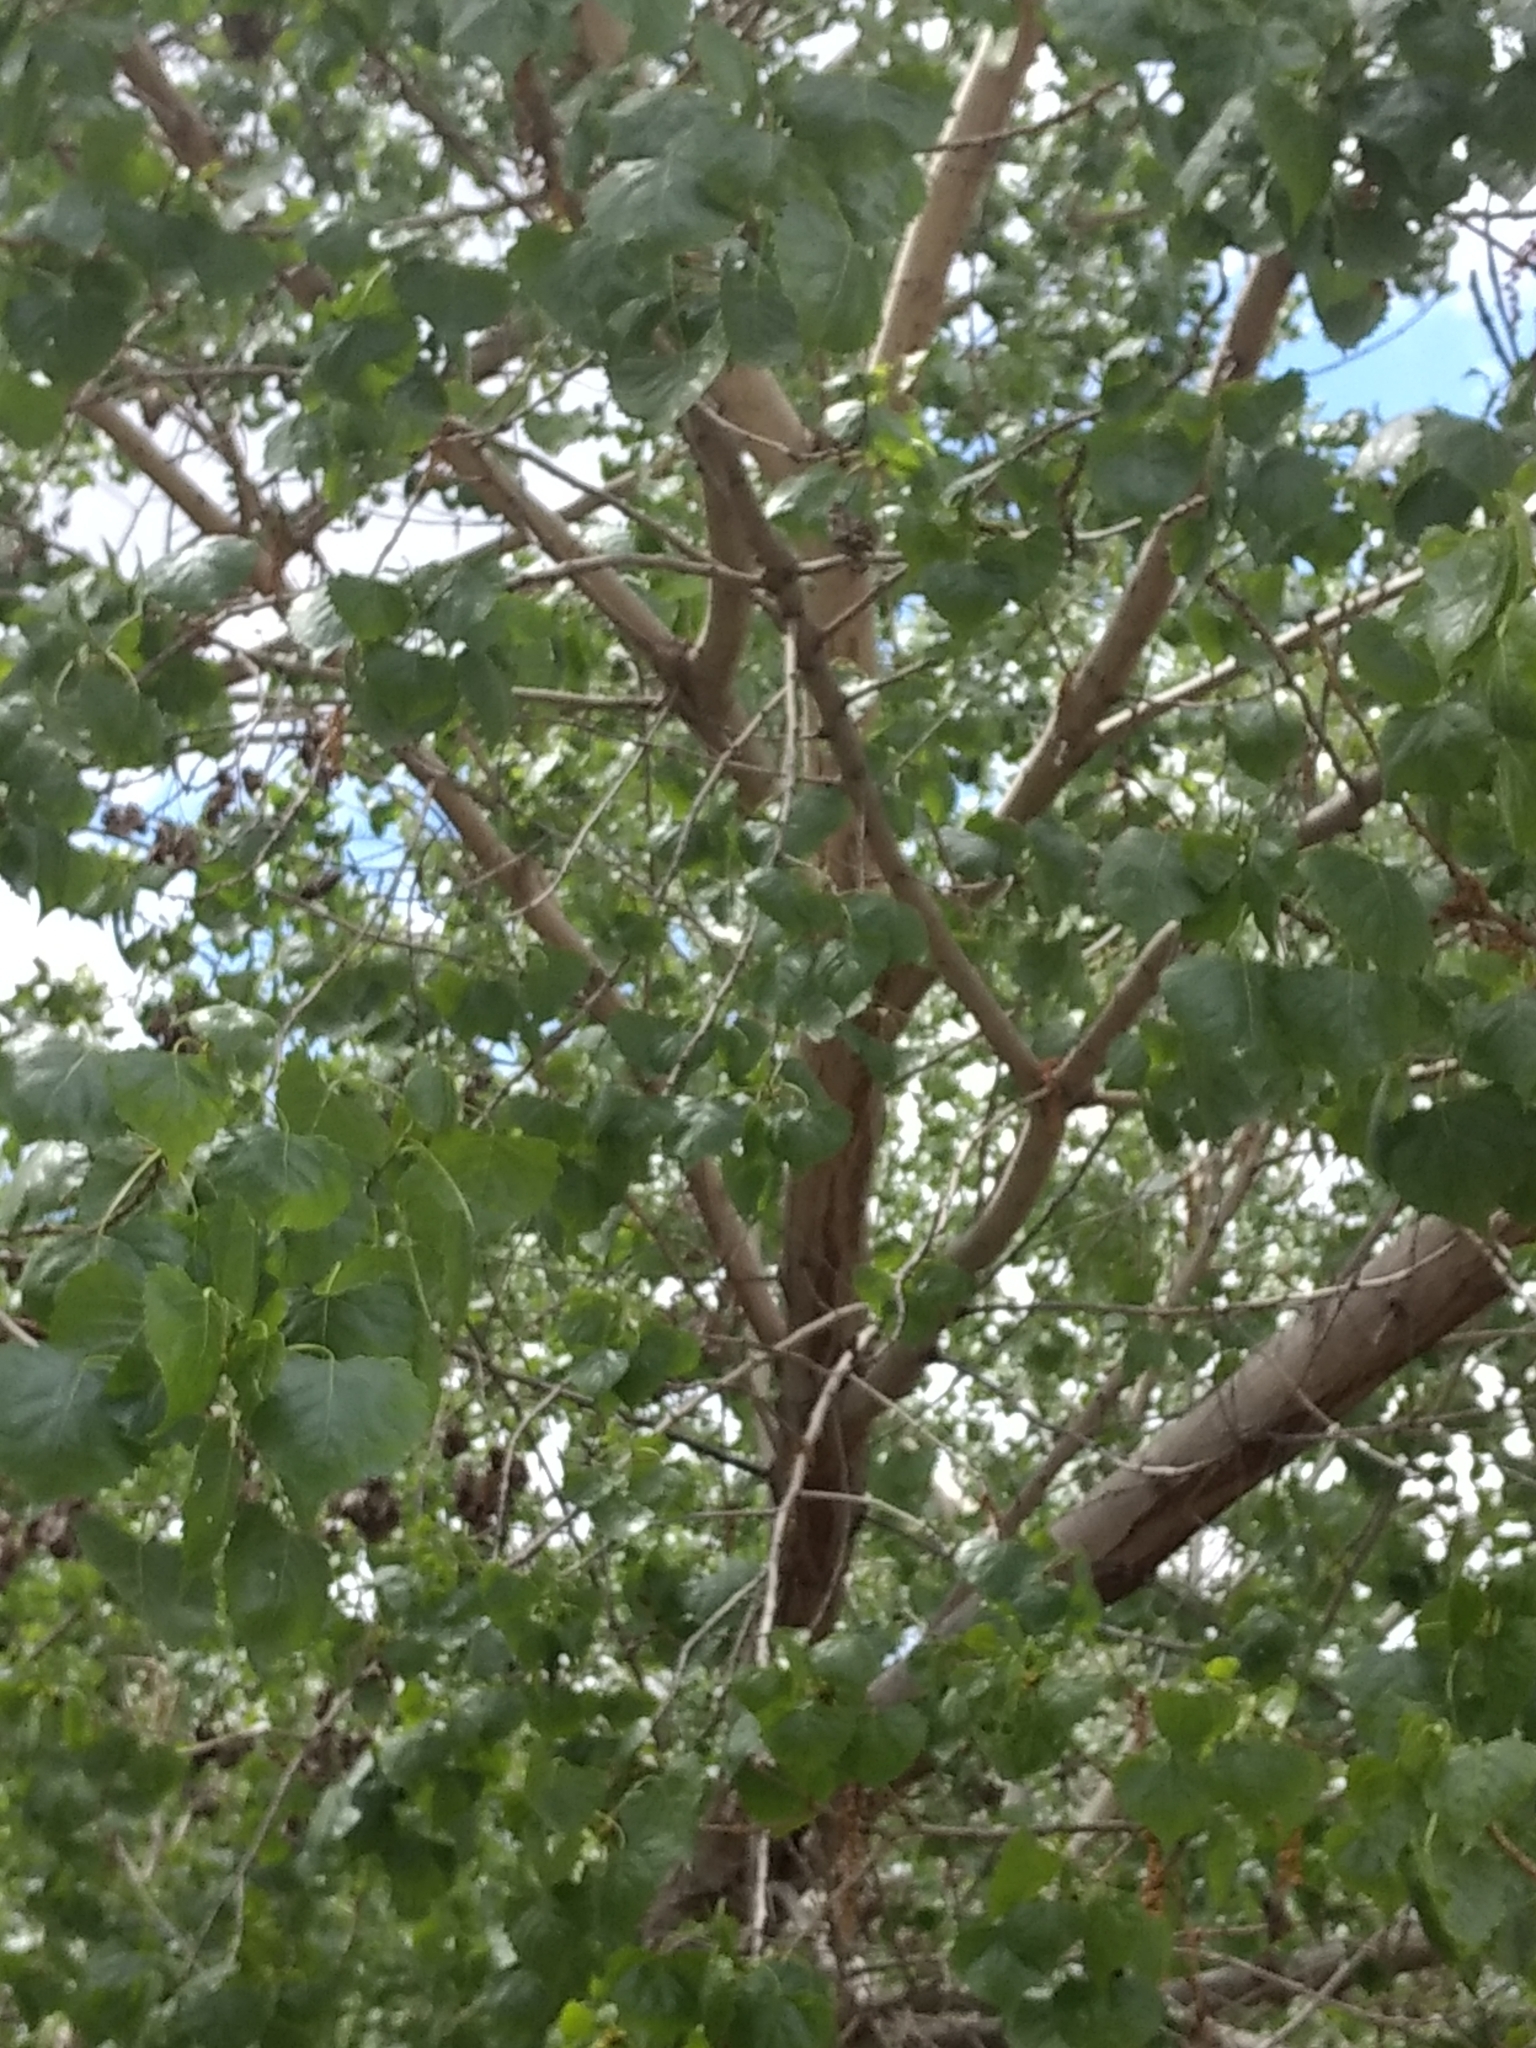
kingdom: Plantae
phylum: Tracheophyta
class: Magnoliopsida
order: Malpighiales
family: Salicaceae
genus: Populus
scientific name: Populus fremontii
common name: Fremont's cottonwood
